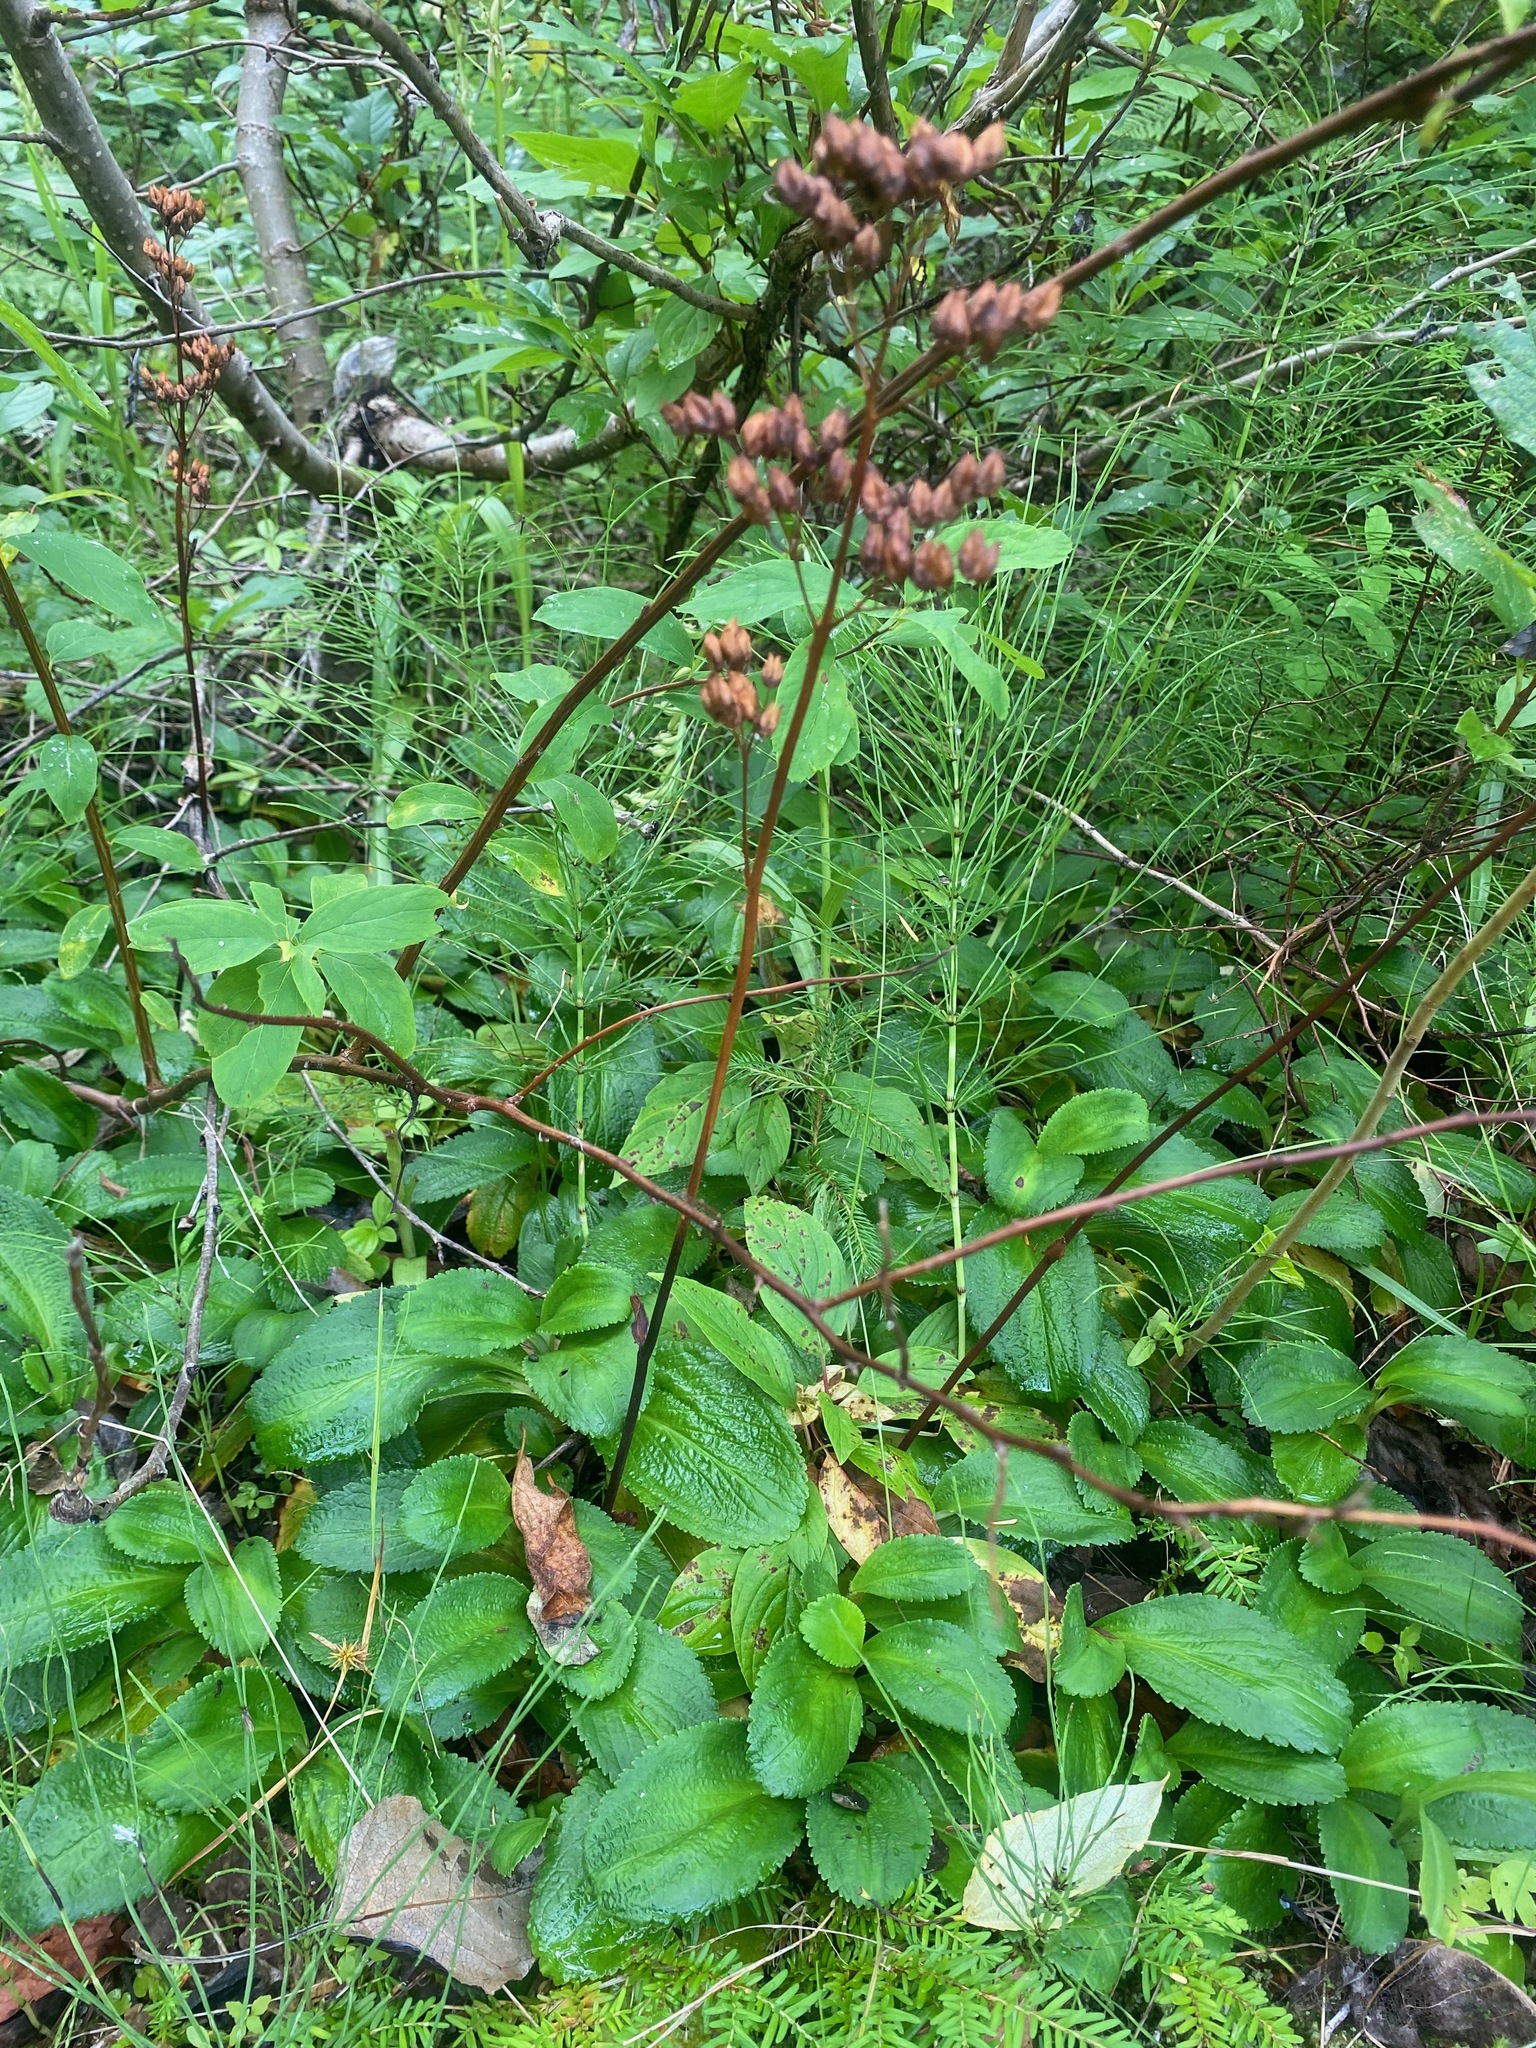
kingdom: Plantae
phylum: Tracheophyta
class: Magnoliopsida
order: Saxifragales
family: Saxifragaceae
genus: Leptarrhena
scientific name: Leptarrhena pyrolifolia
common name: Leatherleaf-saxifrage
